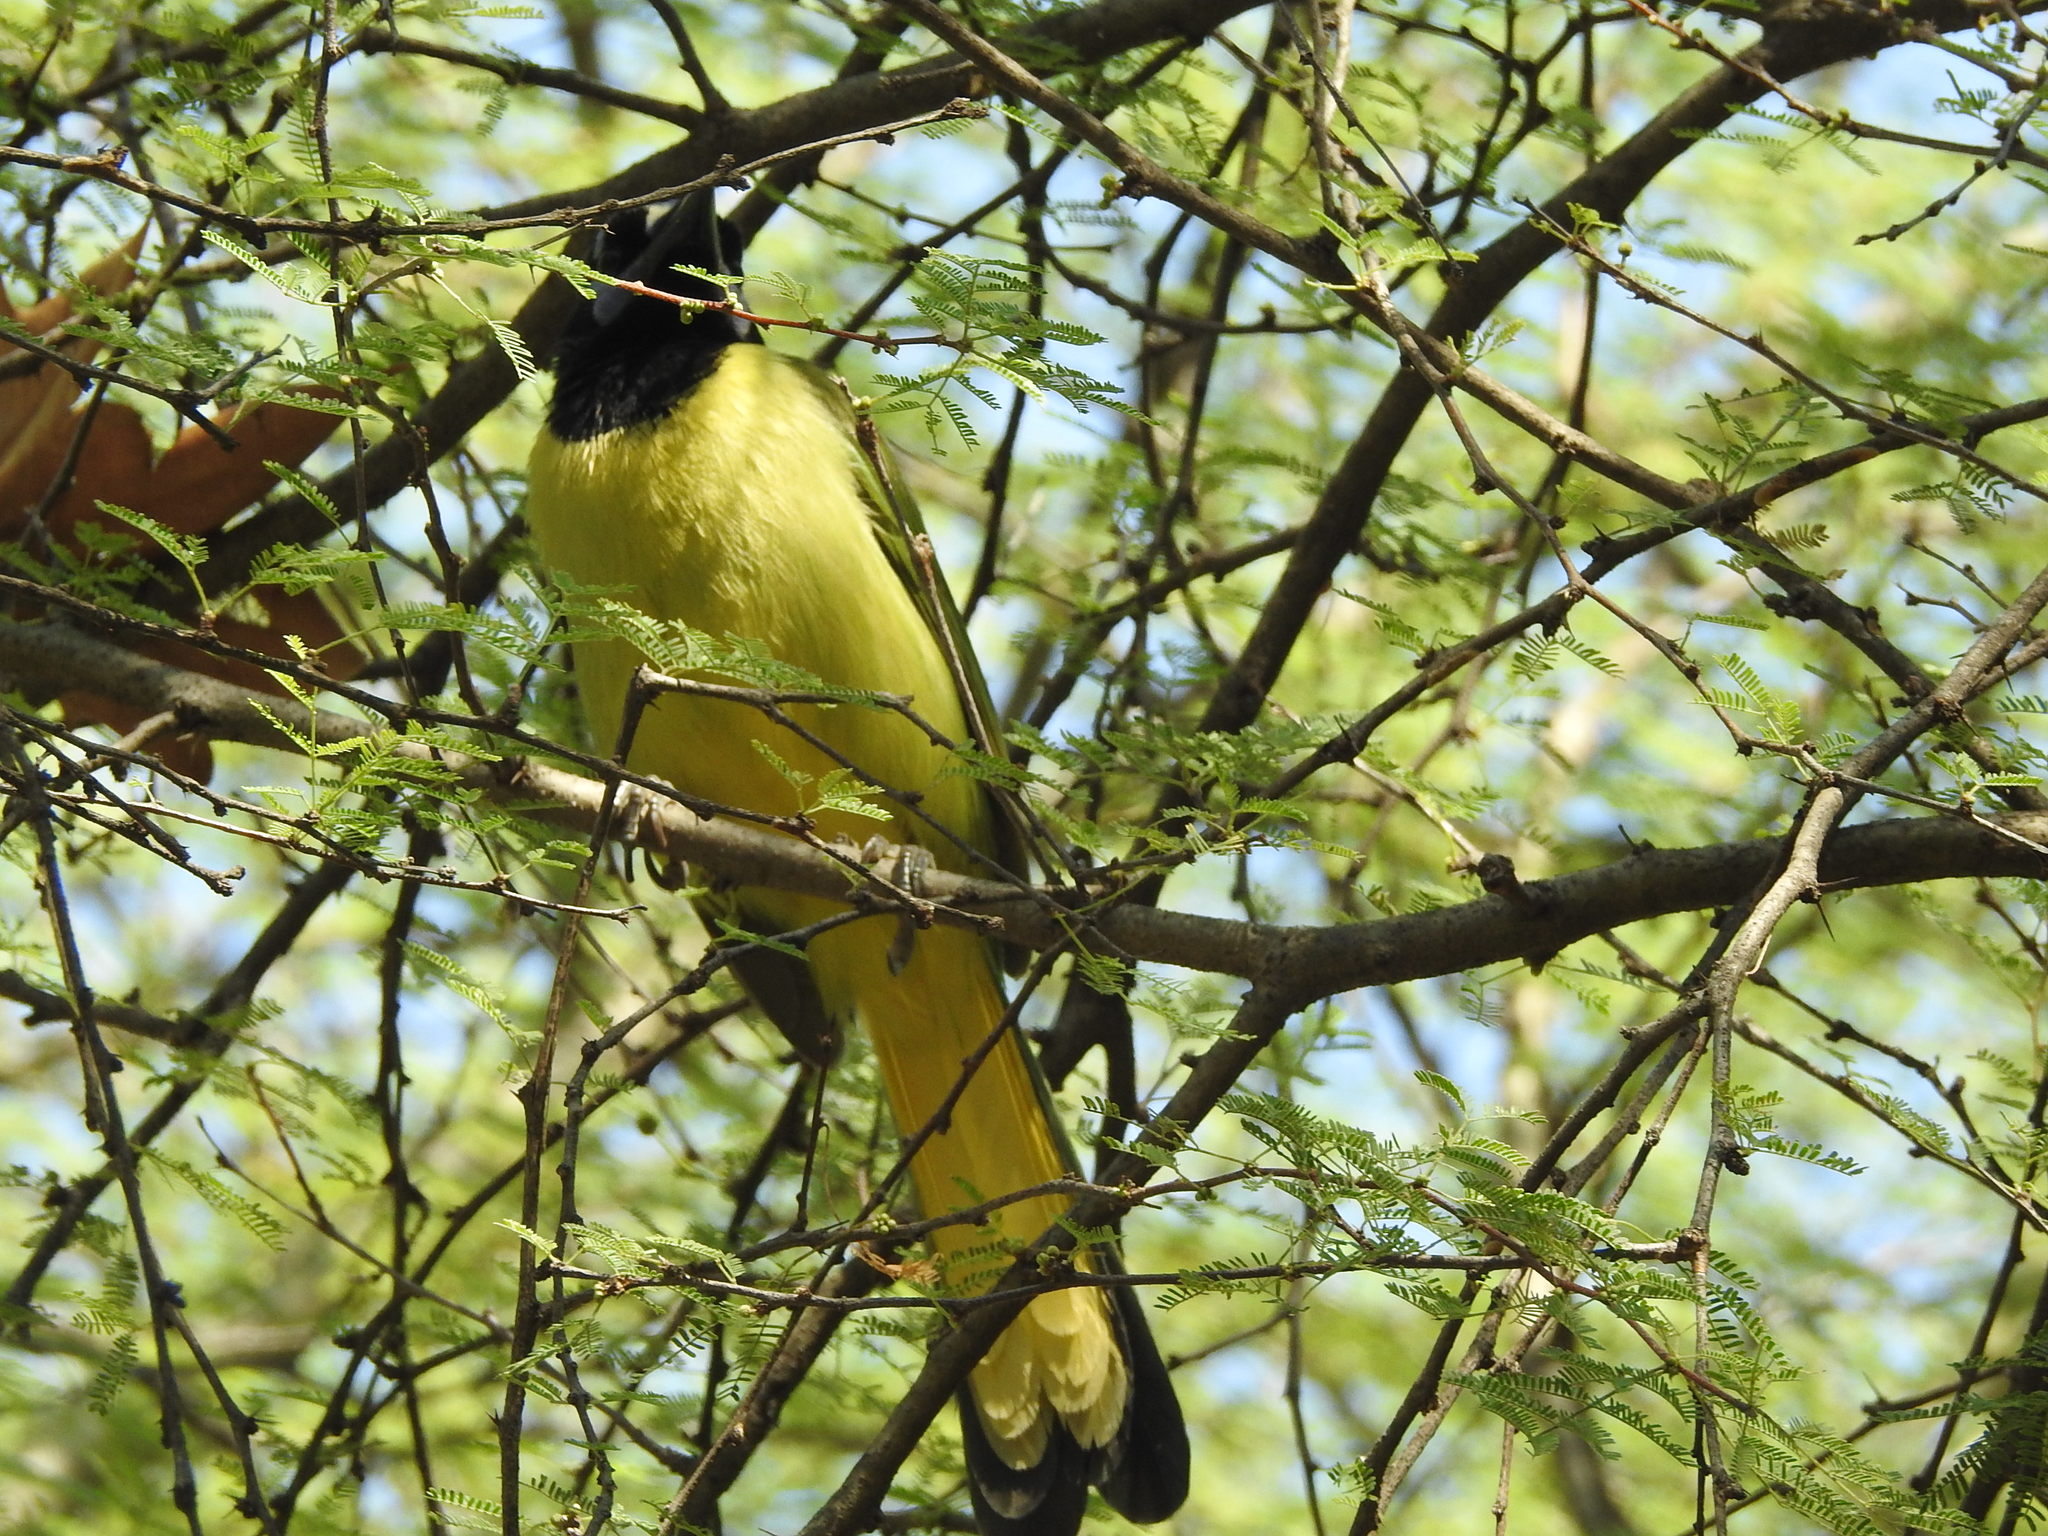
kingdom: Animalia
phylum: Chordata
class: Aves
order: Passeriformes
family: Corvidae
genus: Cyanocorax
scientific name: Cyanocorax yncas
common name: Green jay
